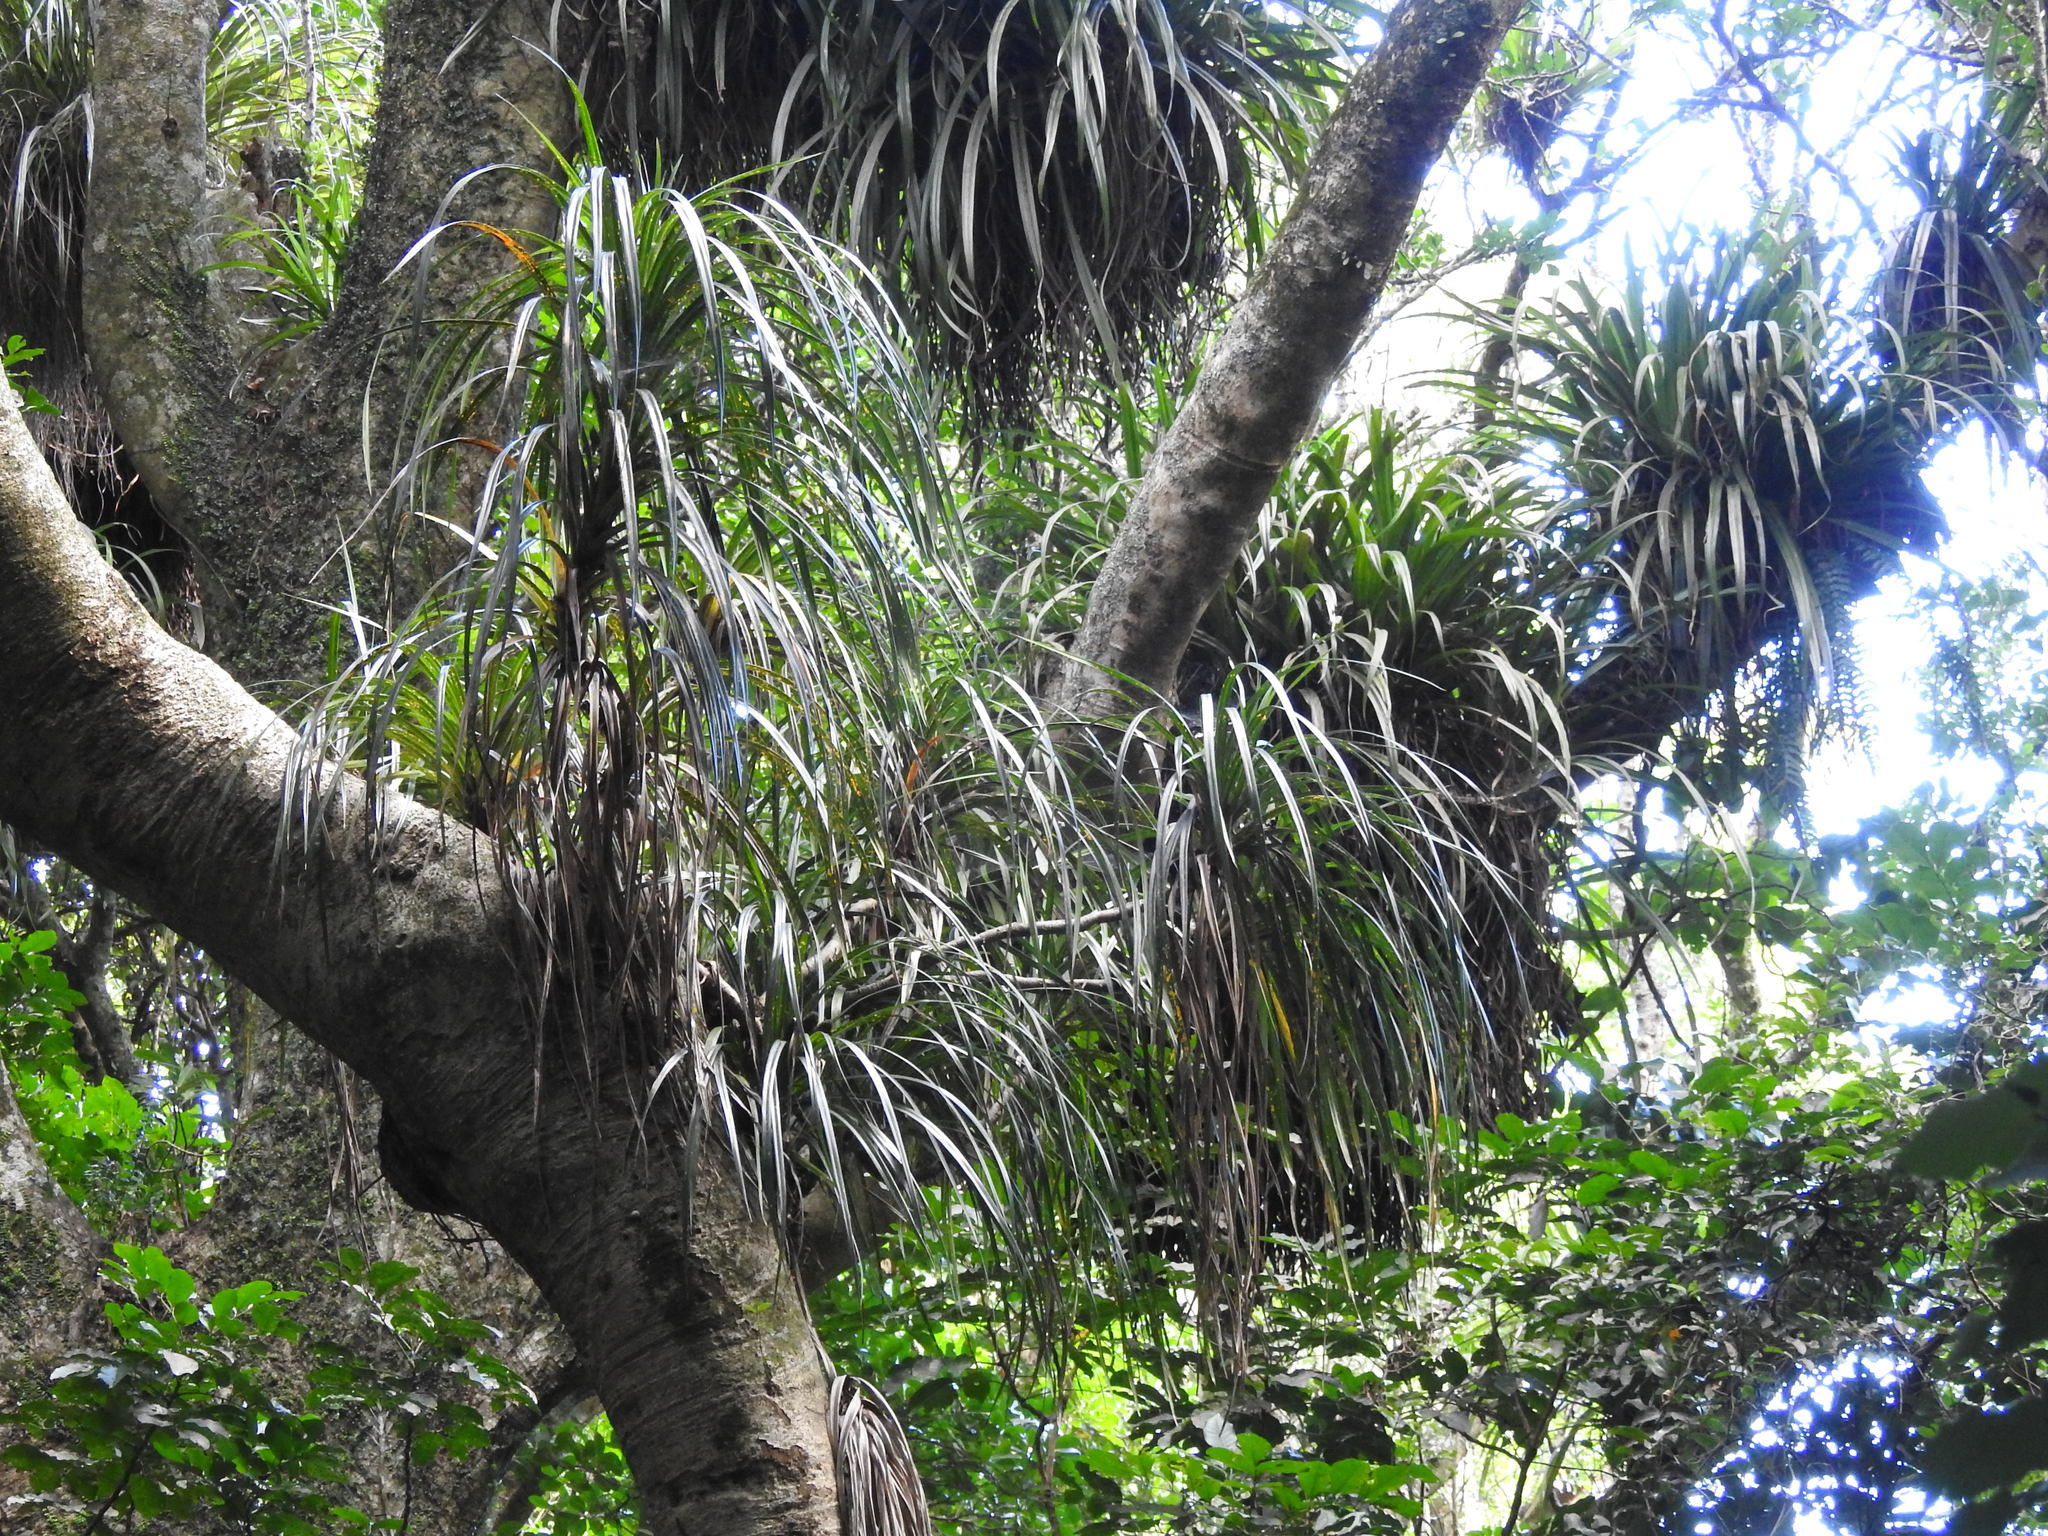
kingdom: Plantae
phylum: Tracheophyta
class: Liliopsida
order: Pandanales
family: Pandanaceae
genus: Freycinetia
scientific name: Freycinetia banksii
